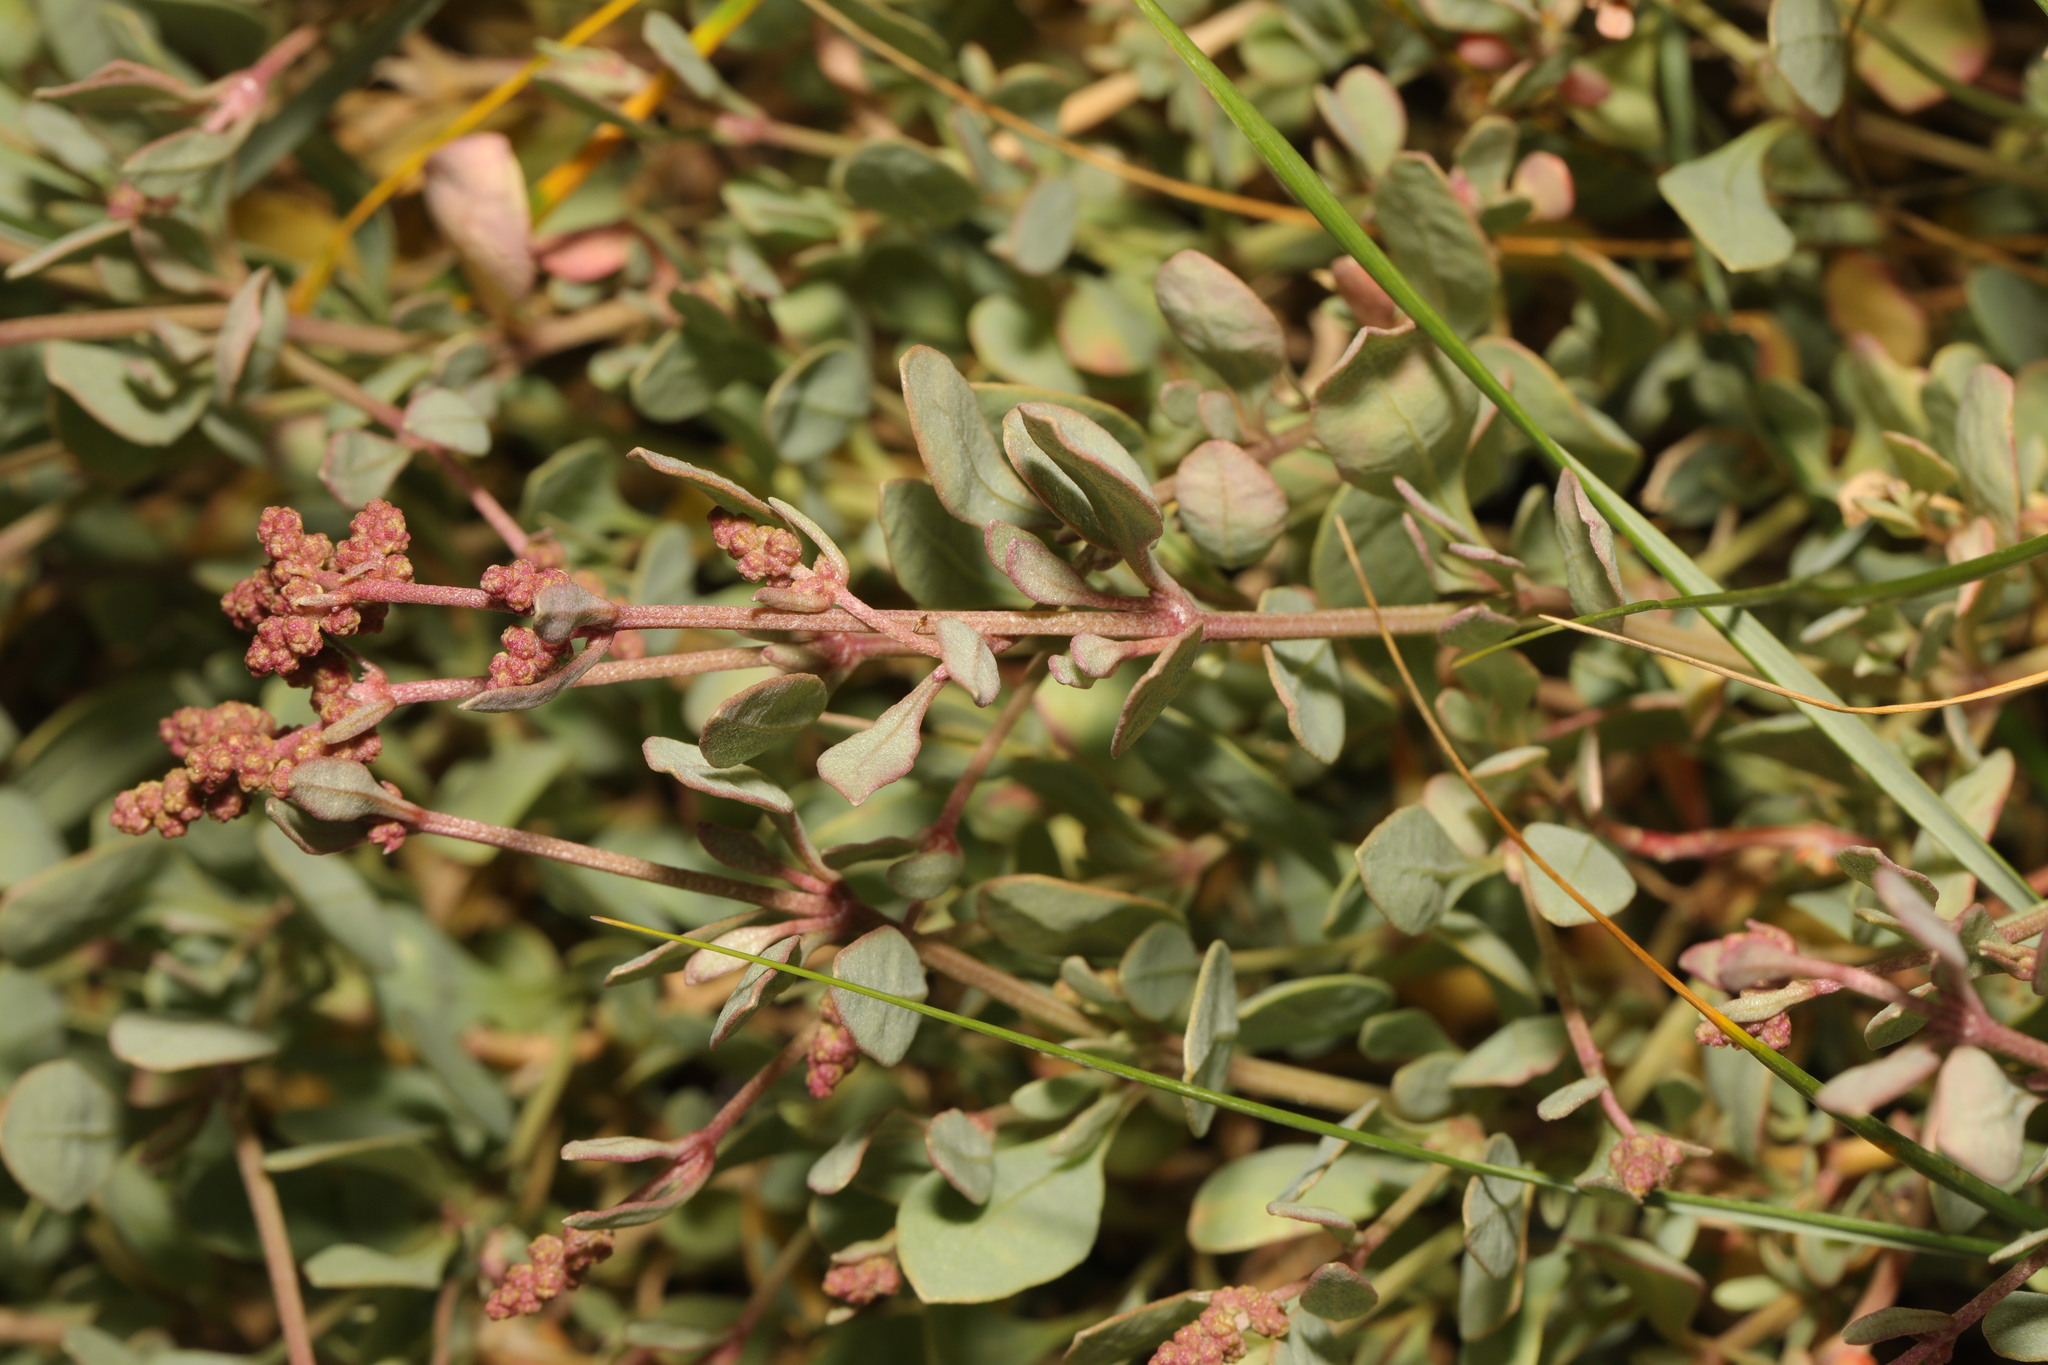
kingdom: Plantae
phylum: Tracheophyta
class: Magnoliopsida
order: Caryophyllales
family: Amaranthaceae
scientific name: Amaranthaceae
